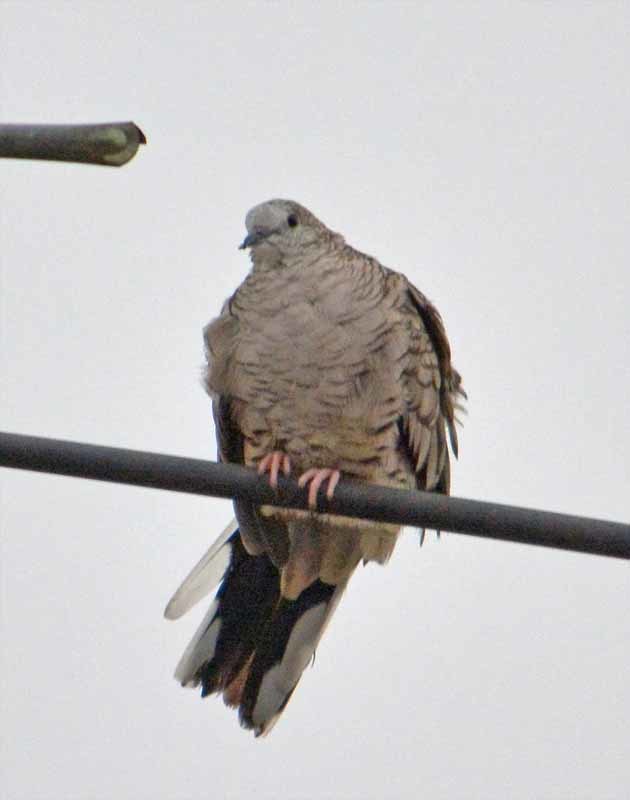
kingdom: Animalia
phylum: Chordata
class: Aves
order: Columbiformes
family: Columbidae
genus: Columbina
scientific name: Columbina inca
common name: Inca dove
